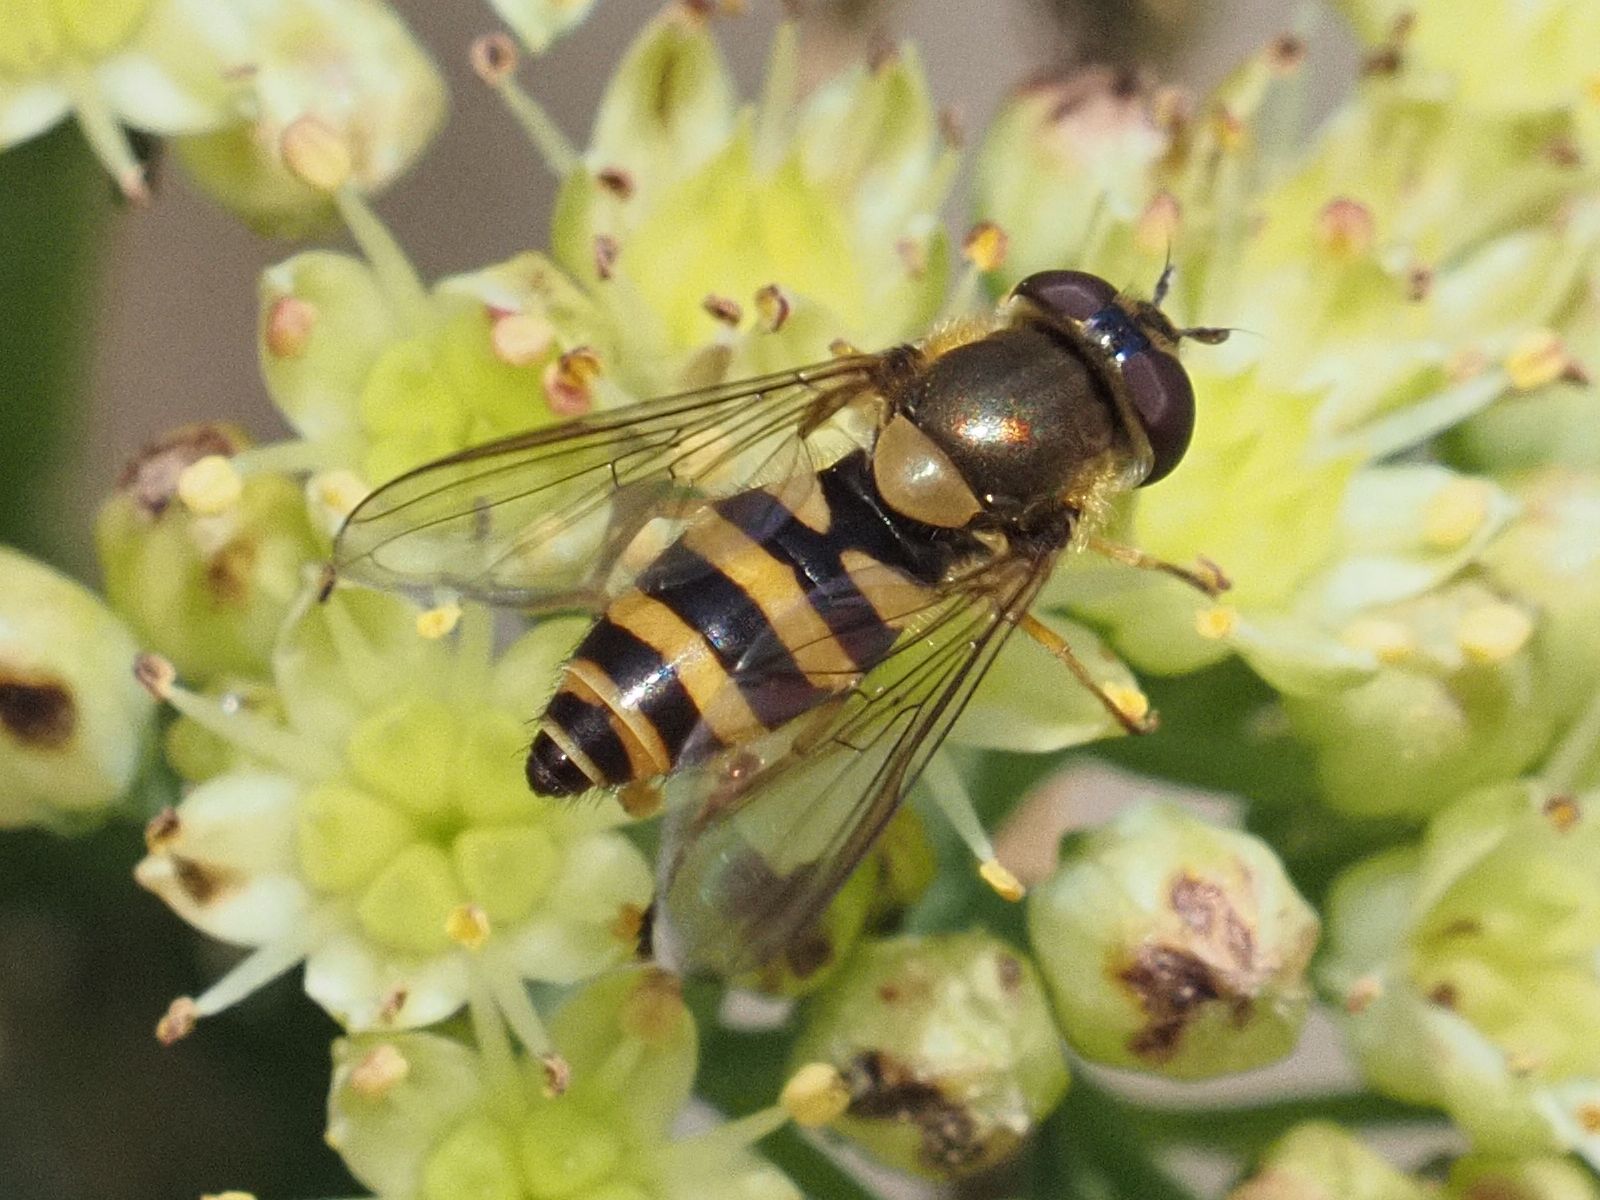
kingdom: Animalia
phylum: Arthropoda
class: Insecta
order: Diptera
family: Syrphidae
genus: Syrphus
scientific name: Syrphus vitripennis
